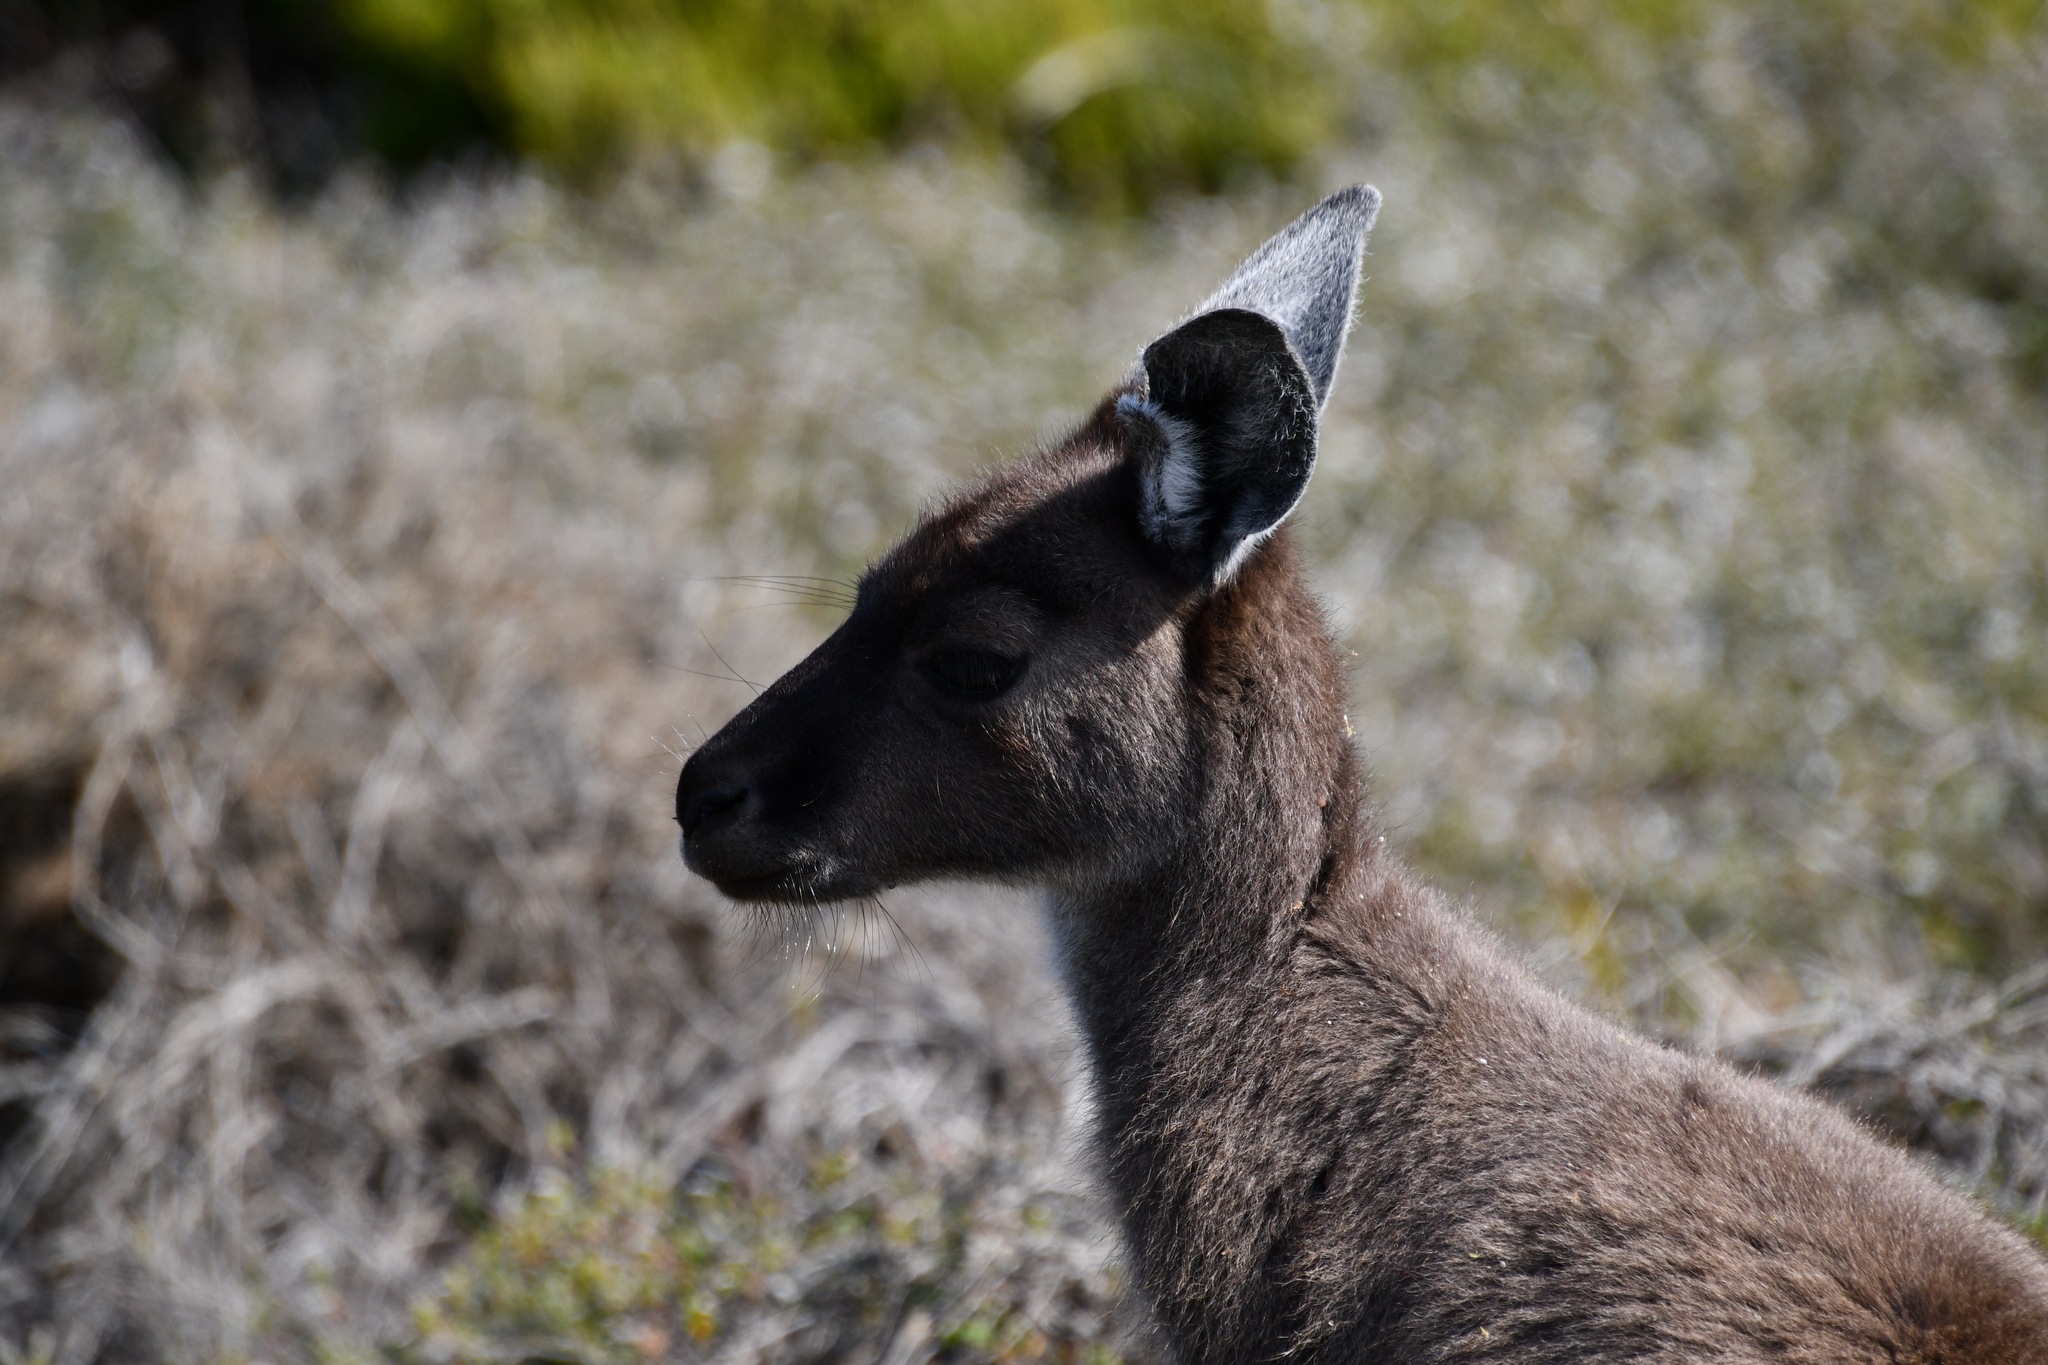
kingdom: Animalia
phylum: Chordata
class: Mammalia
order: Diprotodontia
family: Macropodidae
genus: Macropus
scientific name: Macropus fuliginosus
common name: Western grey kangaroo
